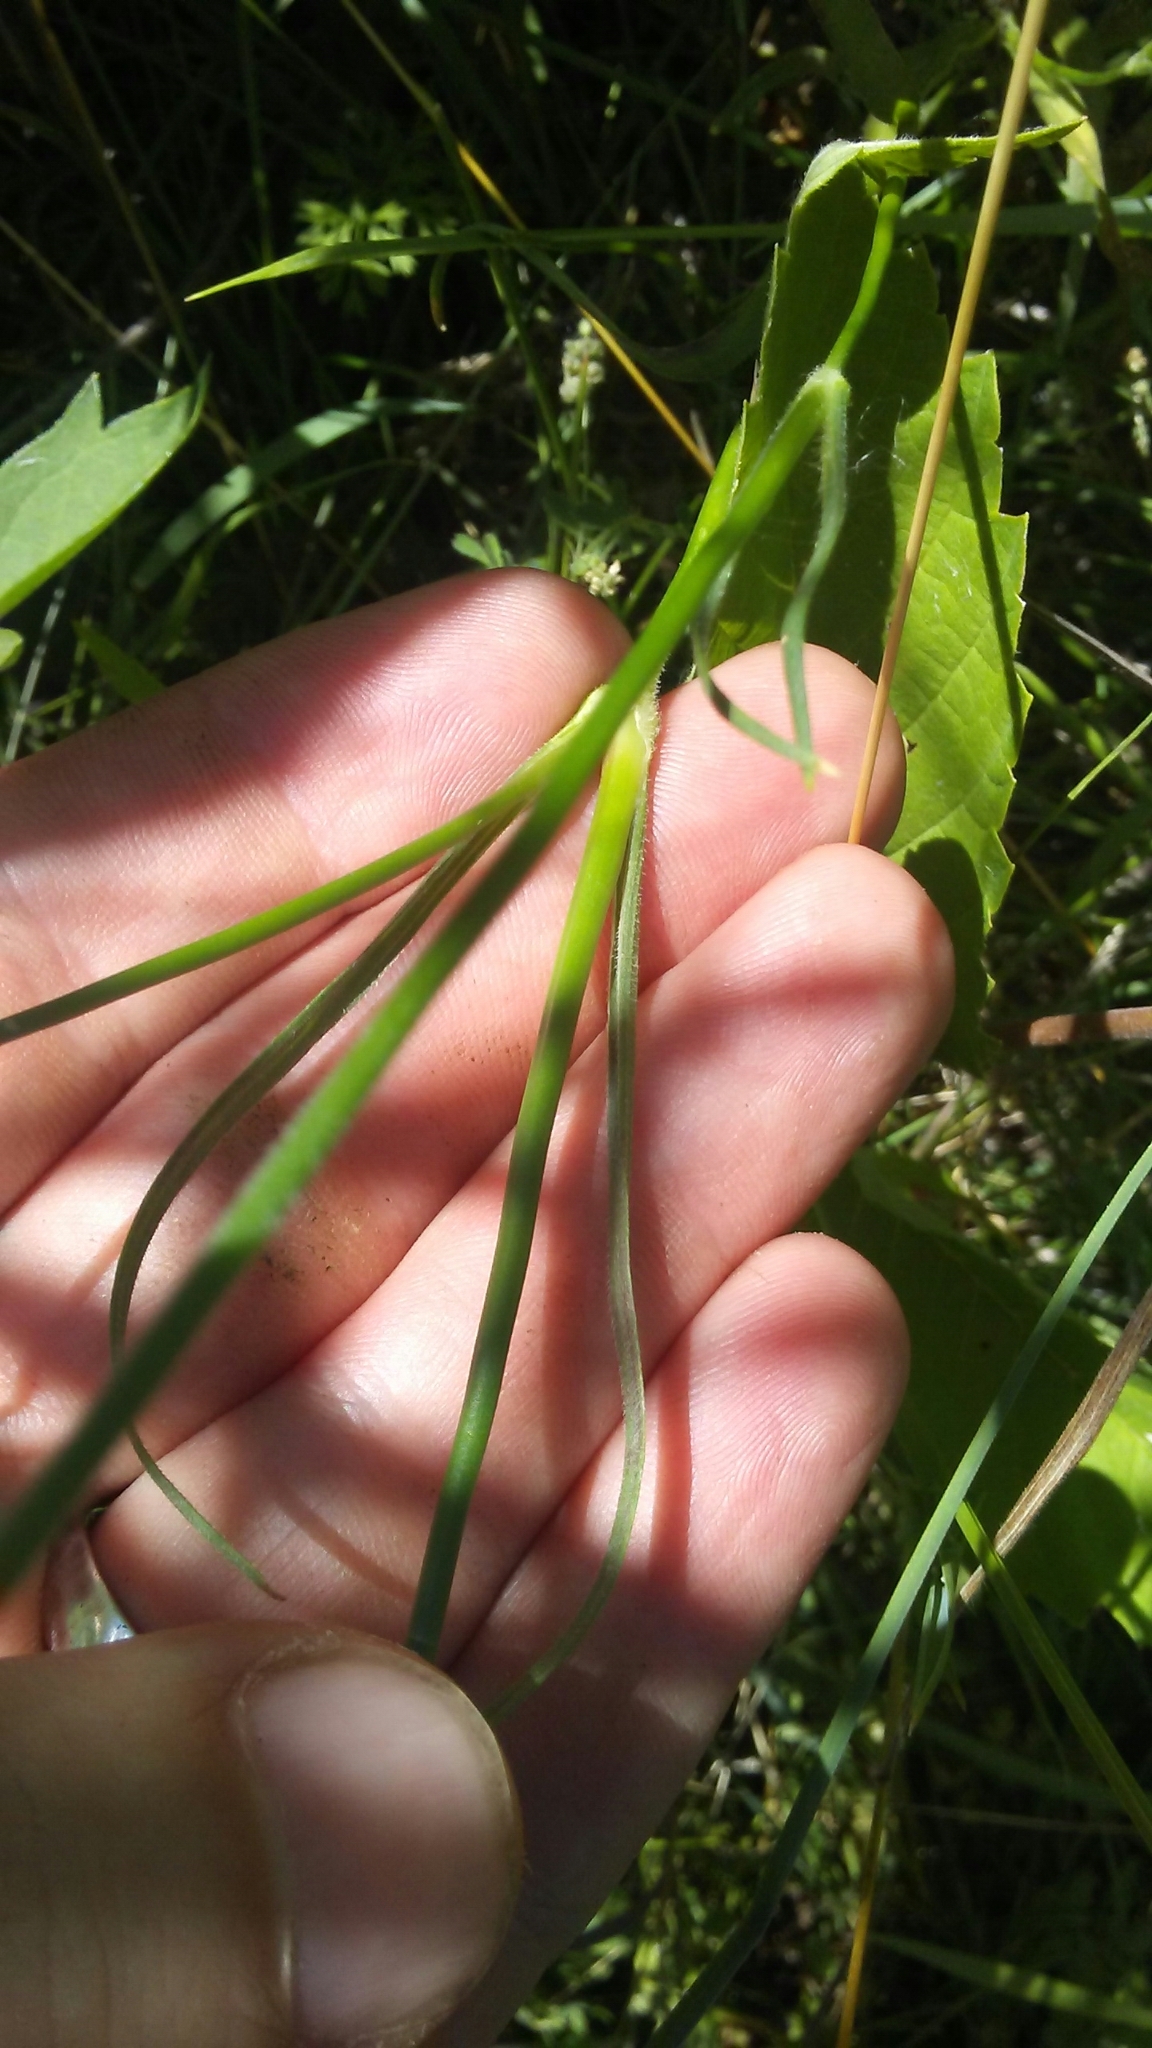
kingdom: Plantae
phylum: Tracheophyta
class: Magnoliopsida
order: Caryophyllales
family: Caryophyllaceae
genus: Dianthus
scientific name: Dianthus armeria
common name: Deptford pink
